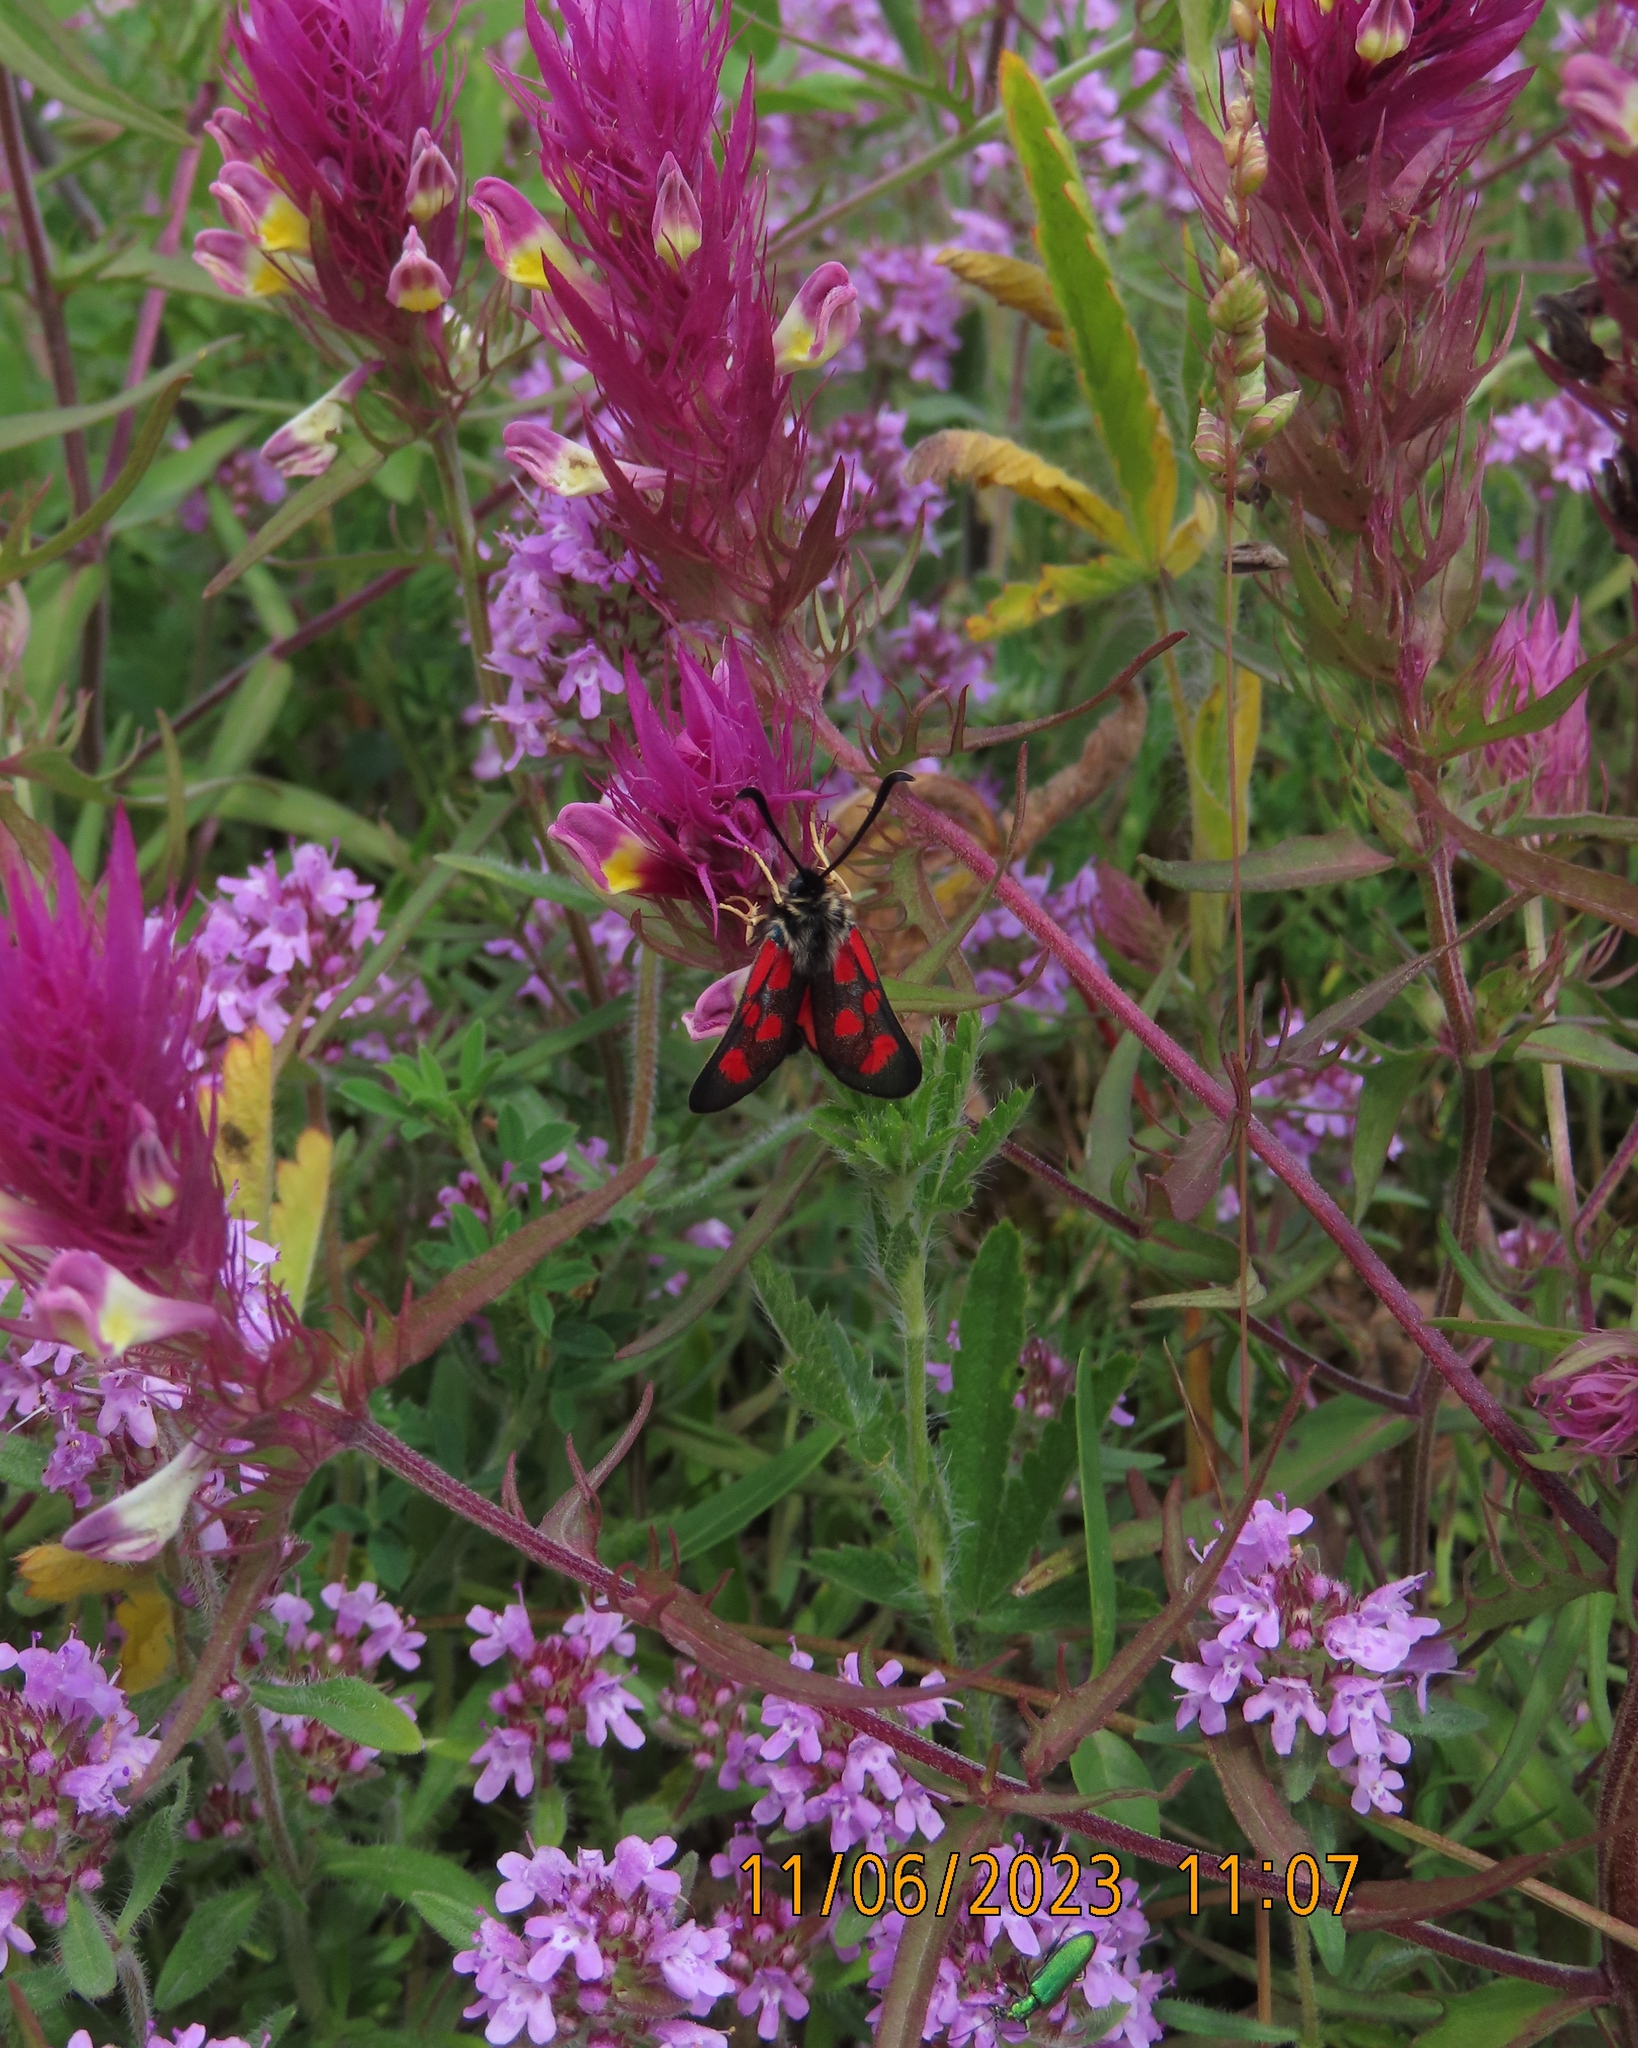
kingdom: Animalia
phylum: Arthropoda
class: Insecta
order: Lepidoptera
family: Zygaenidae
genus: Zygaena
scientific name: Zygaena loti
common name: Slender scotch burnet
